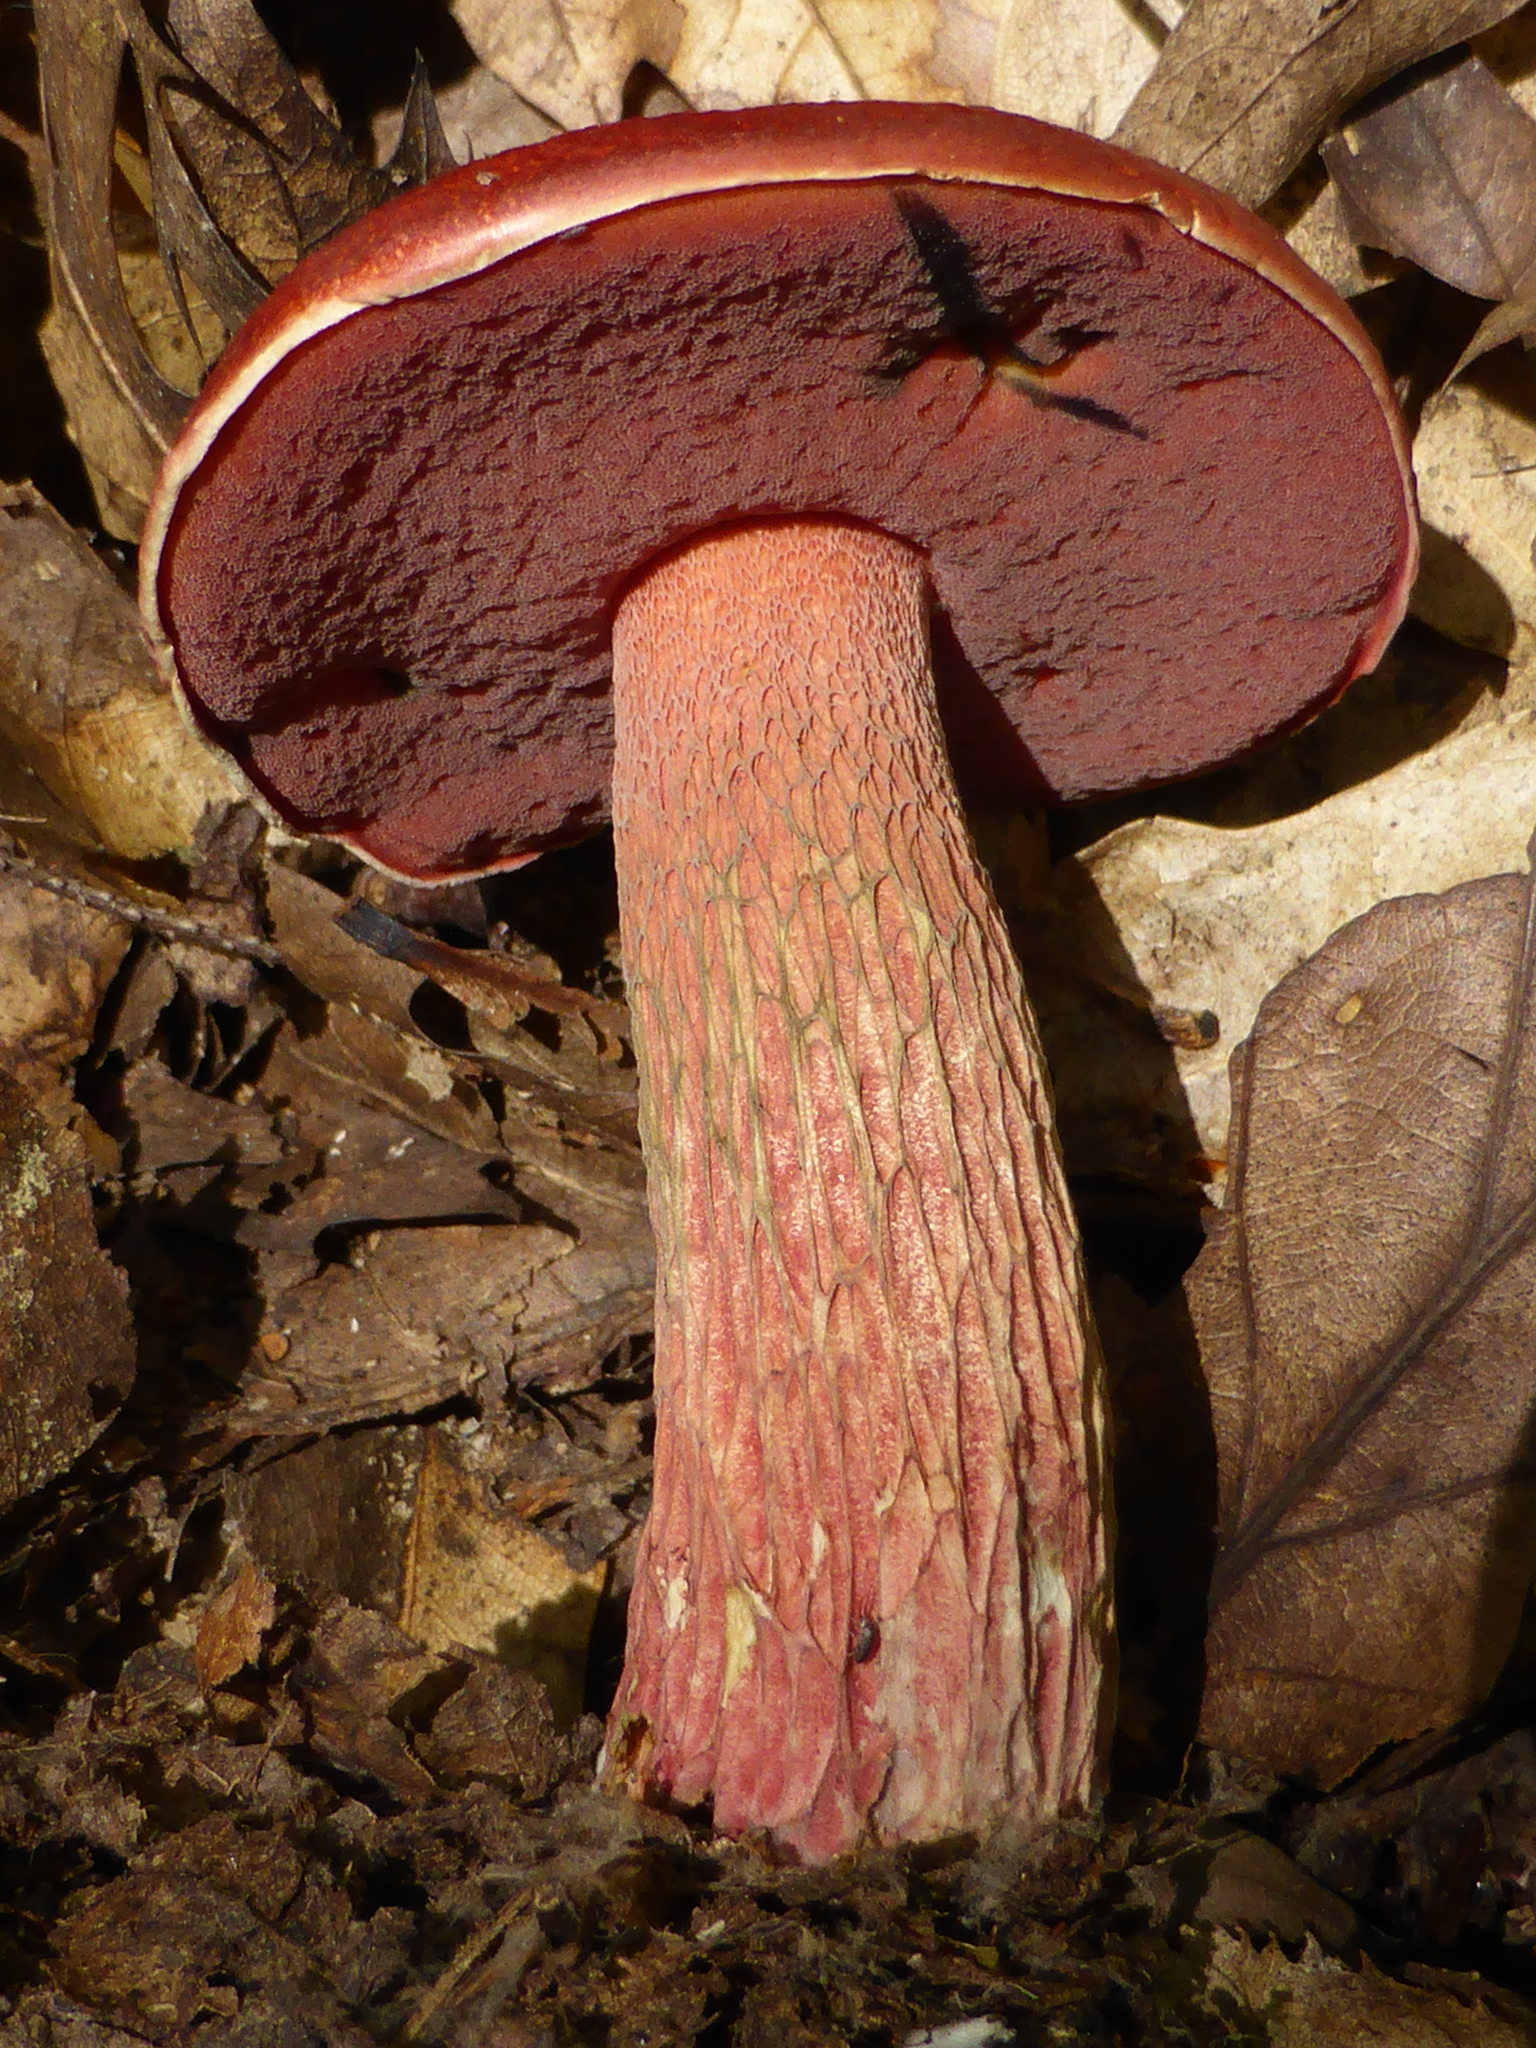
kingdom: Fungi
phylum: Basidiomycota
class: Agaricomycetes
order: Boletales
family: Boletaceae
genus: Butyriboletus
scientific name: Butyriboletus frostii
